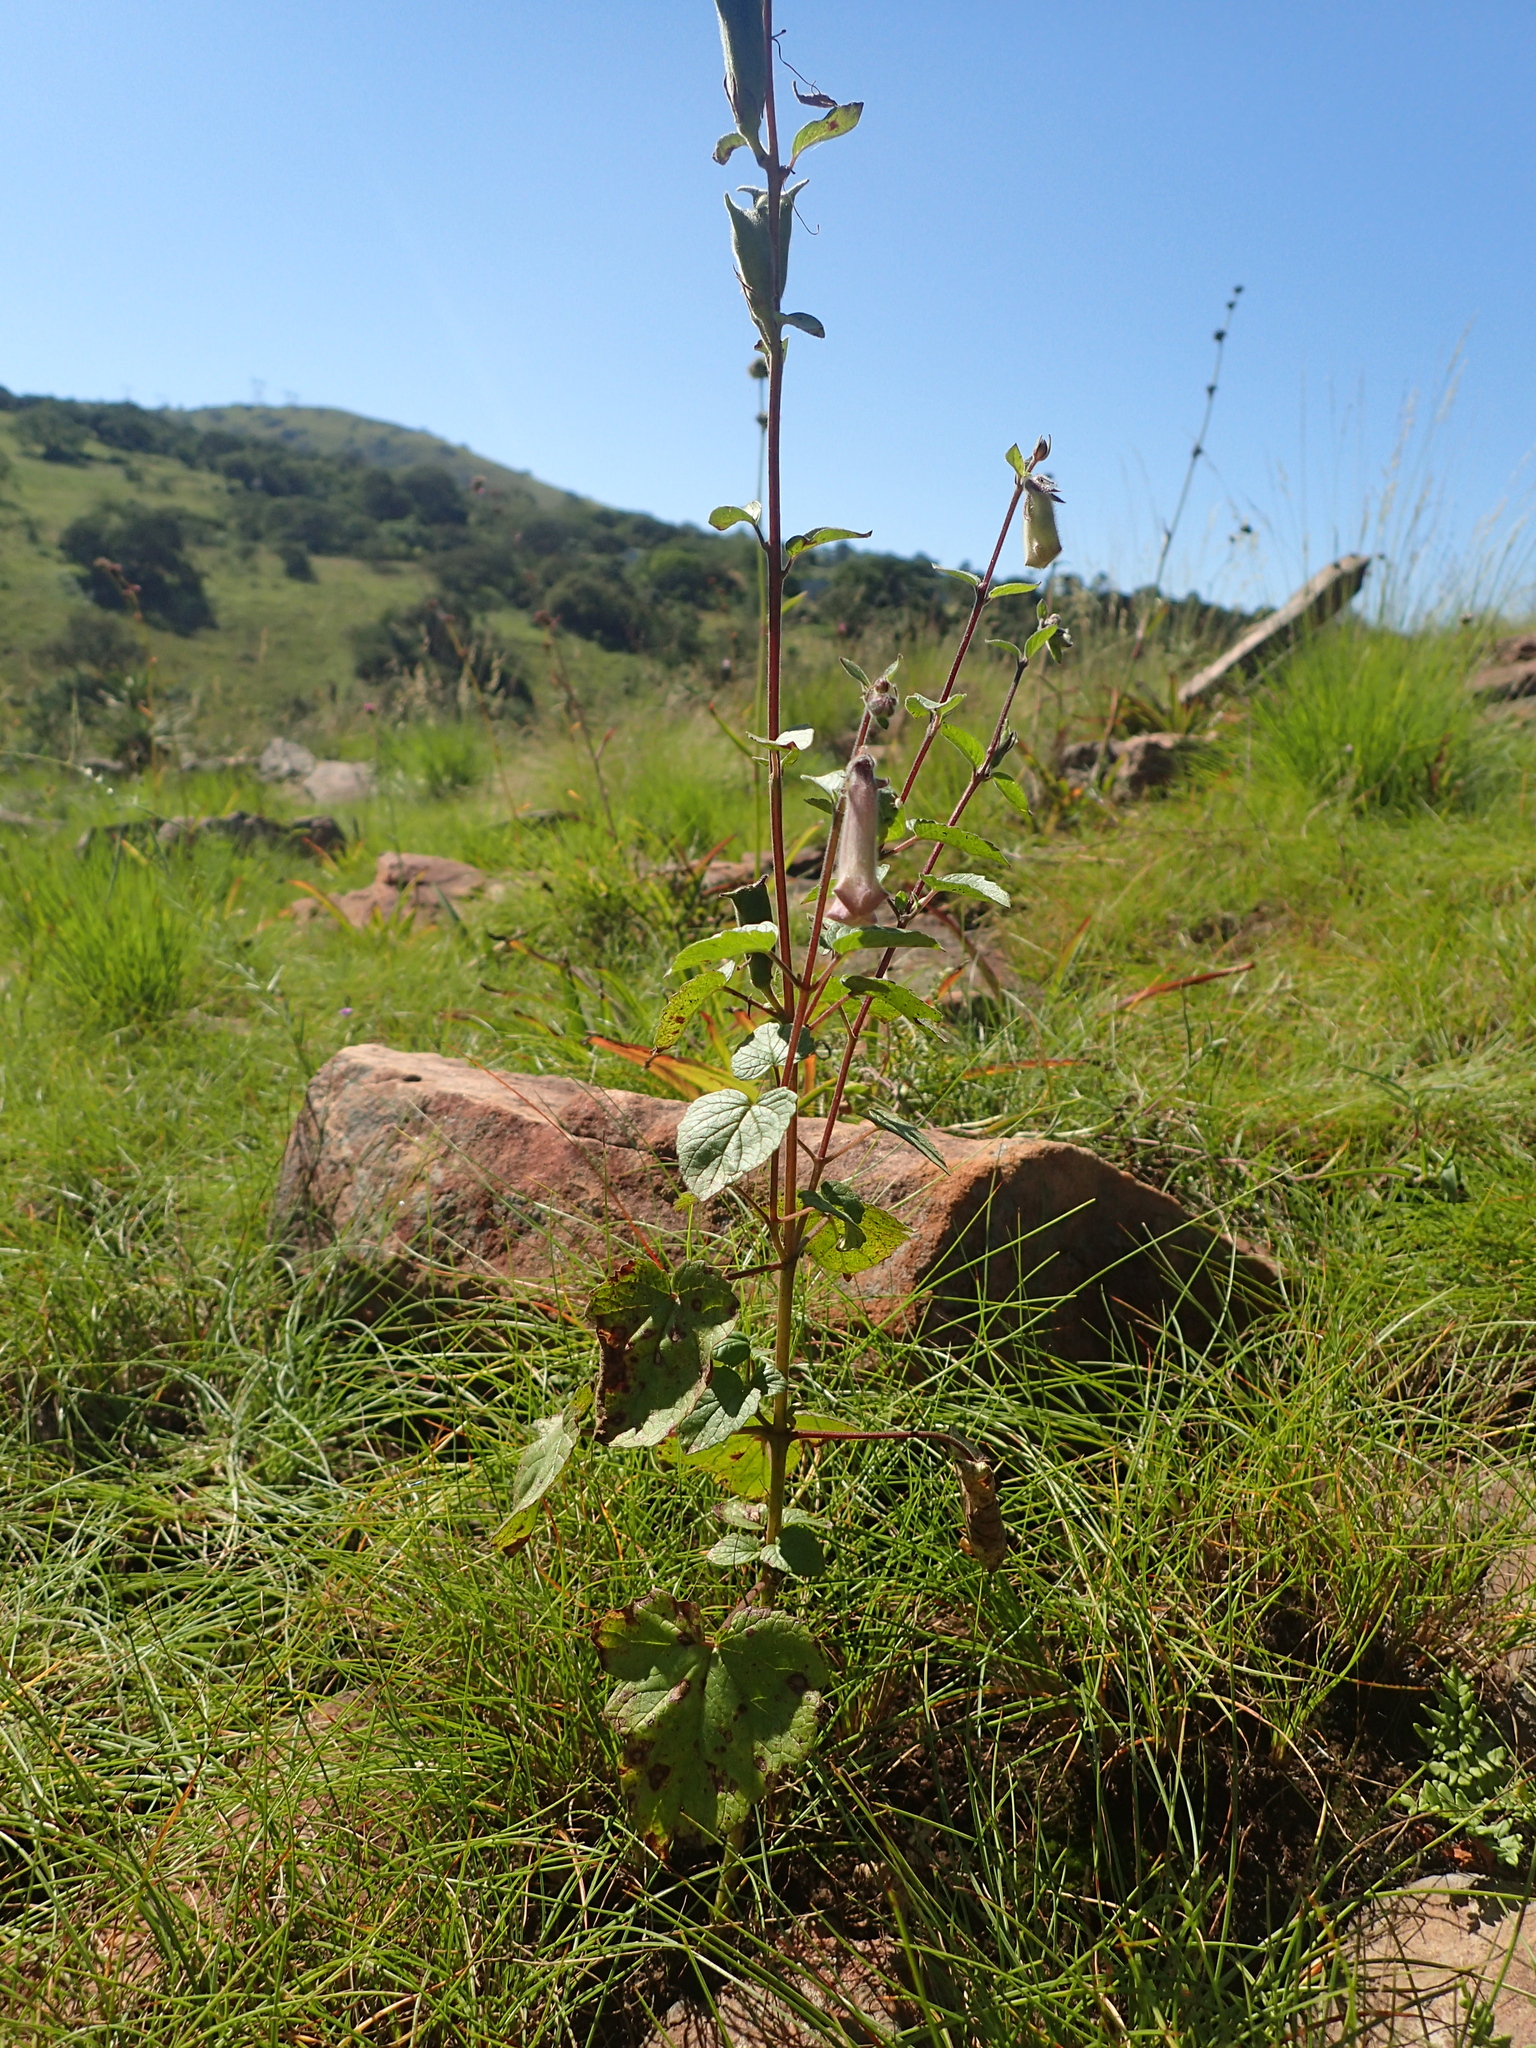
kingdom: Plantae
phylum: Tracheophyta
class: Magnoliopsida
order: Lamiales
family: Pedaliaceae
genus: Sesamum
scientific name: Sesamum trilobum
